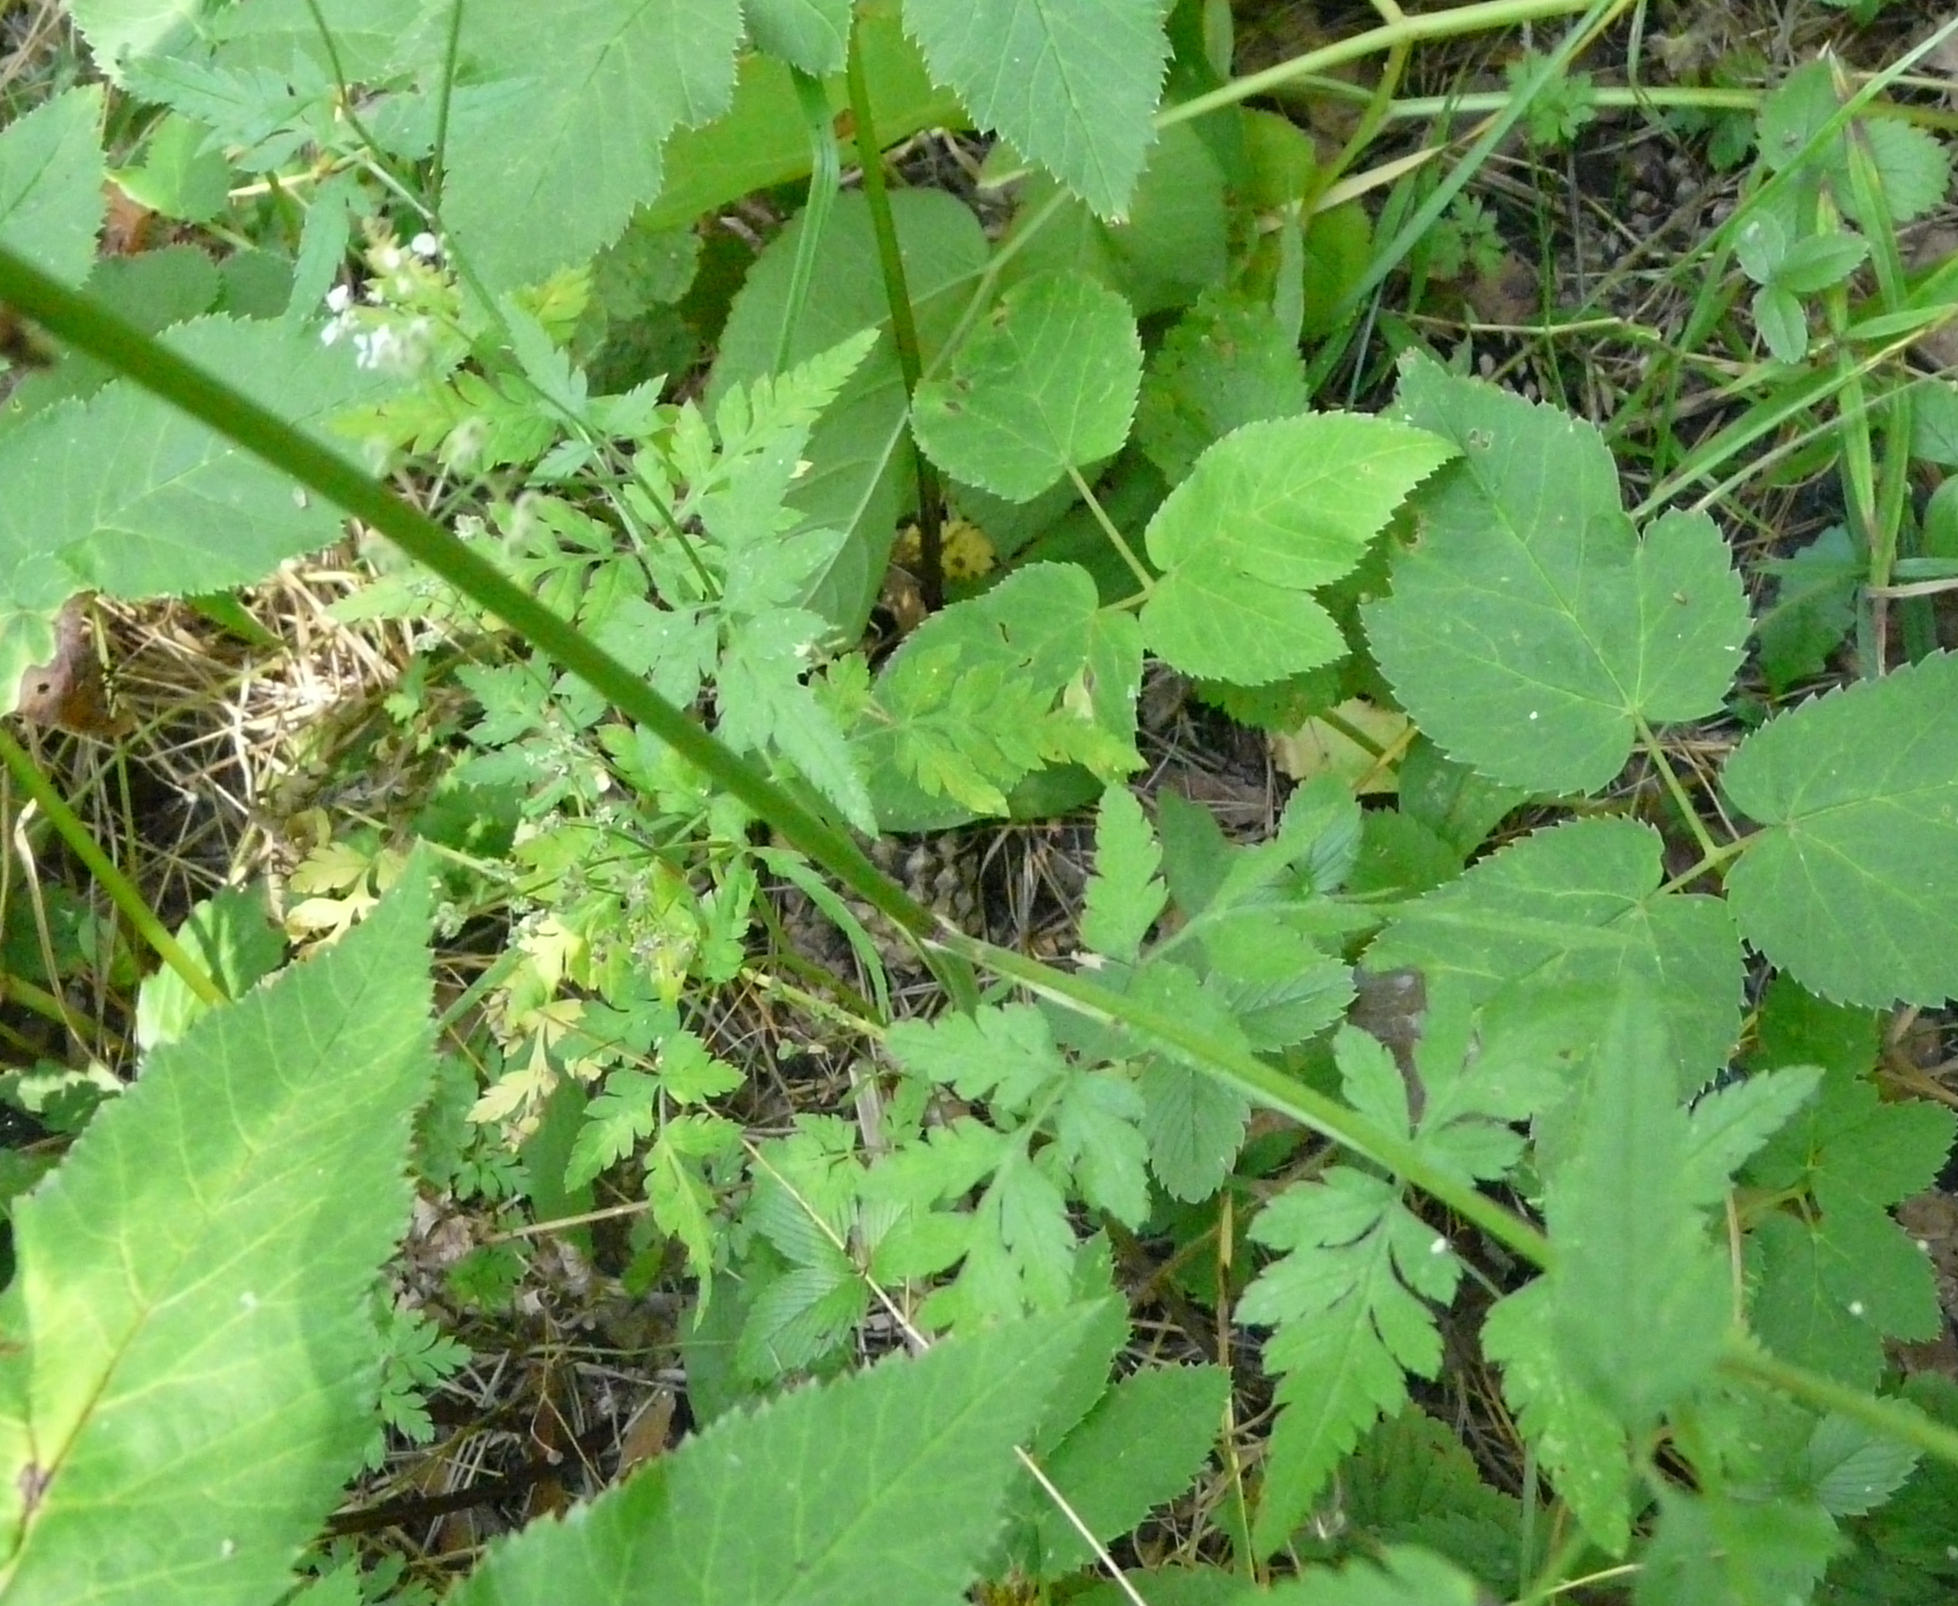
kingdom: Plantae
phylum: Tracheophyta
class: Magnoliopsida
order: Apiales
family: Apiaceae
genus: Torilis
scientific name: Torilis japonica
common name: Upright hedge-parsley
